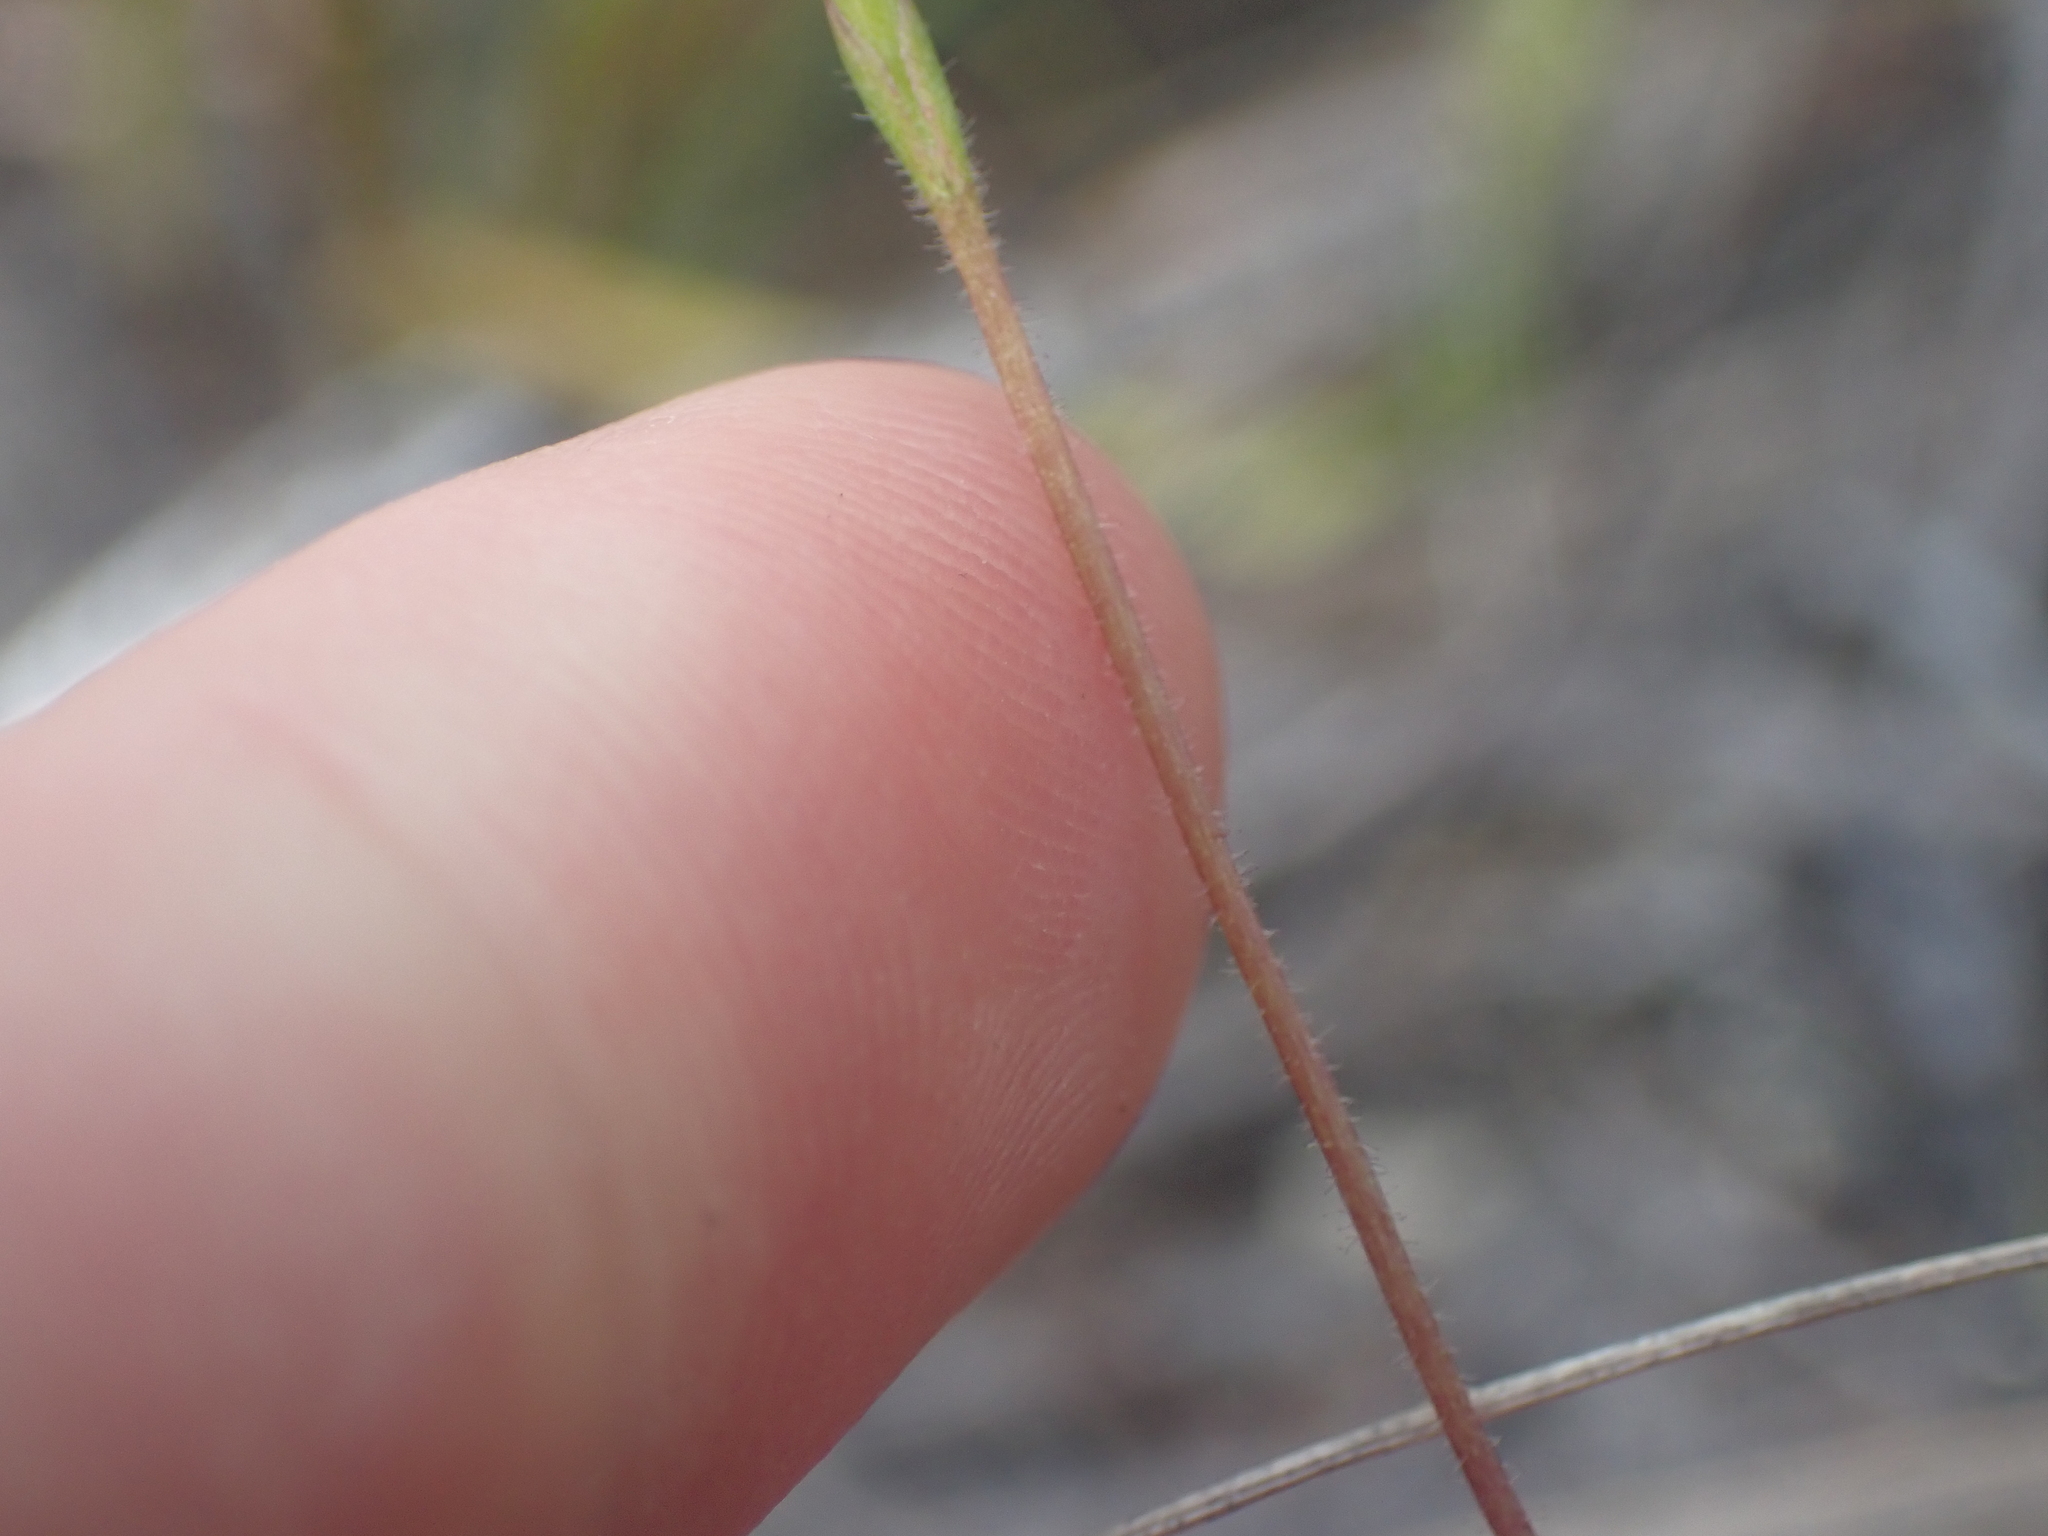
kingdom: Plantae
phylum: Tracheophyta
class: Liliopsida
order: Asparagales
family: Orchidaceae
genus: Caladenia
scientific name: Caladenia atradenia
